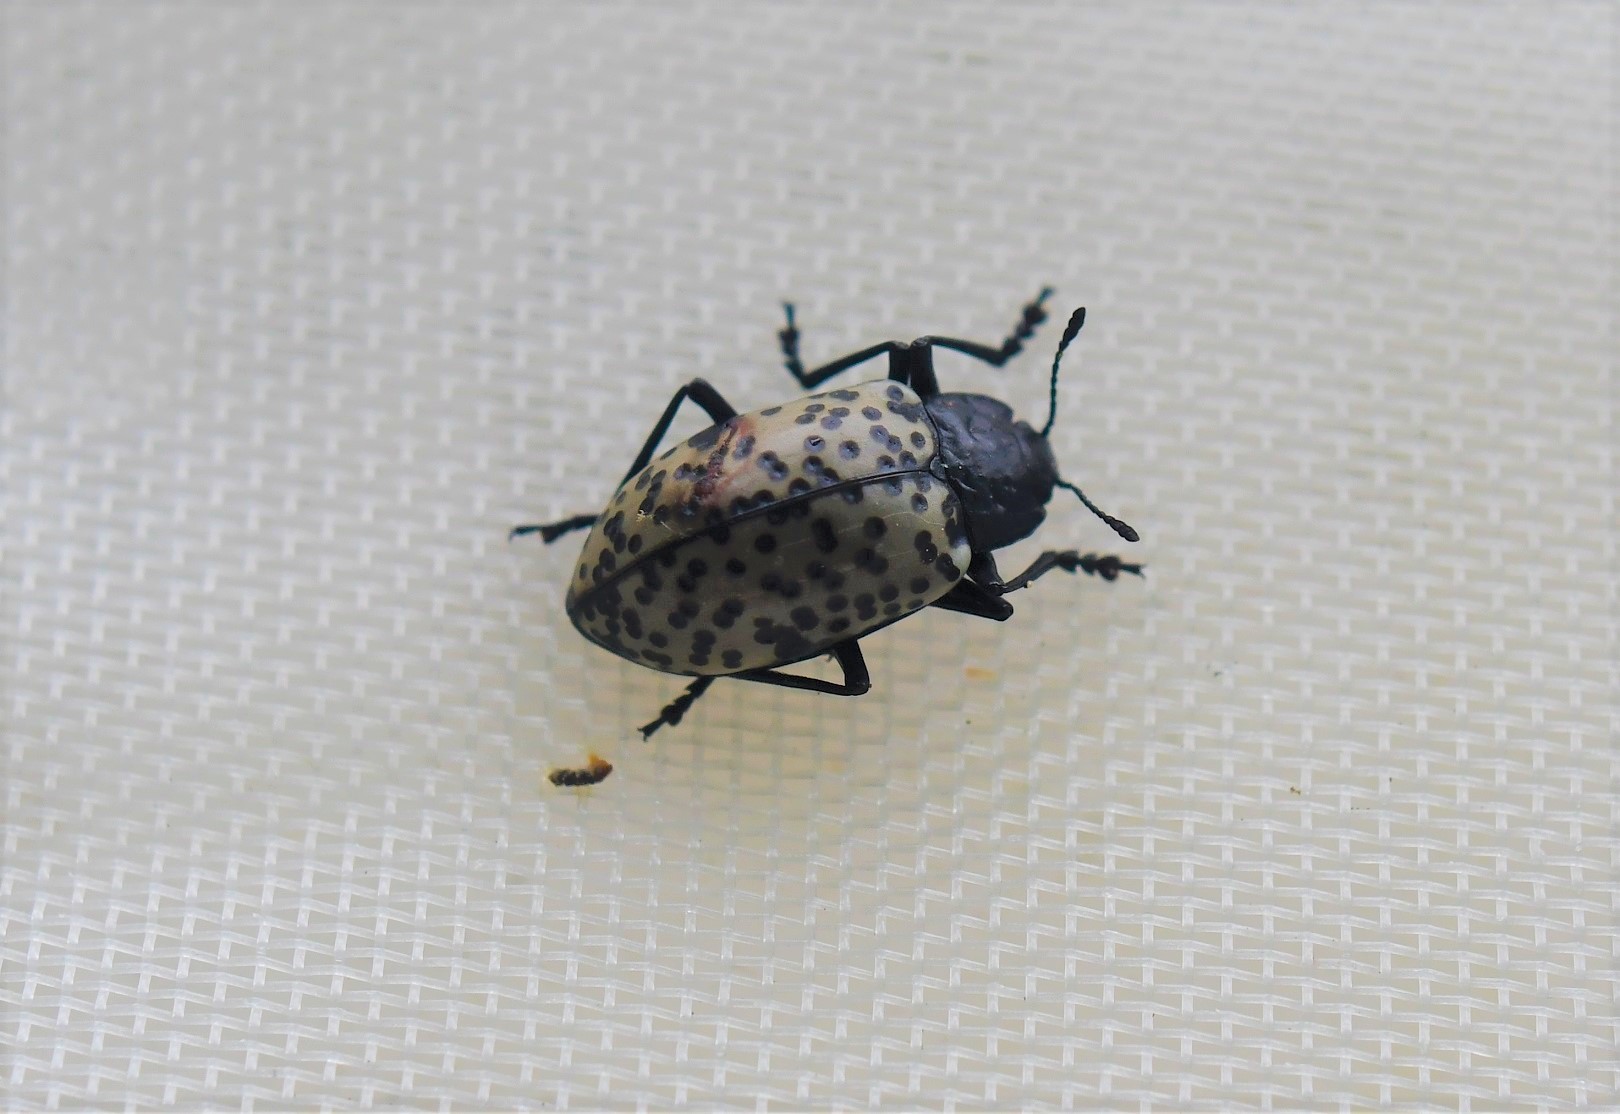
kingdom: Animalia
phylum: Arthropoda
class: Insecta
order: Coleoptera
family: Erotylidae
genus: Gibbifer
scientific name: Gibbifer californicus
